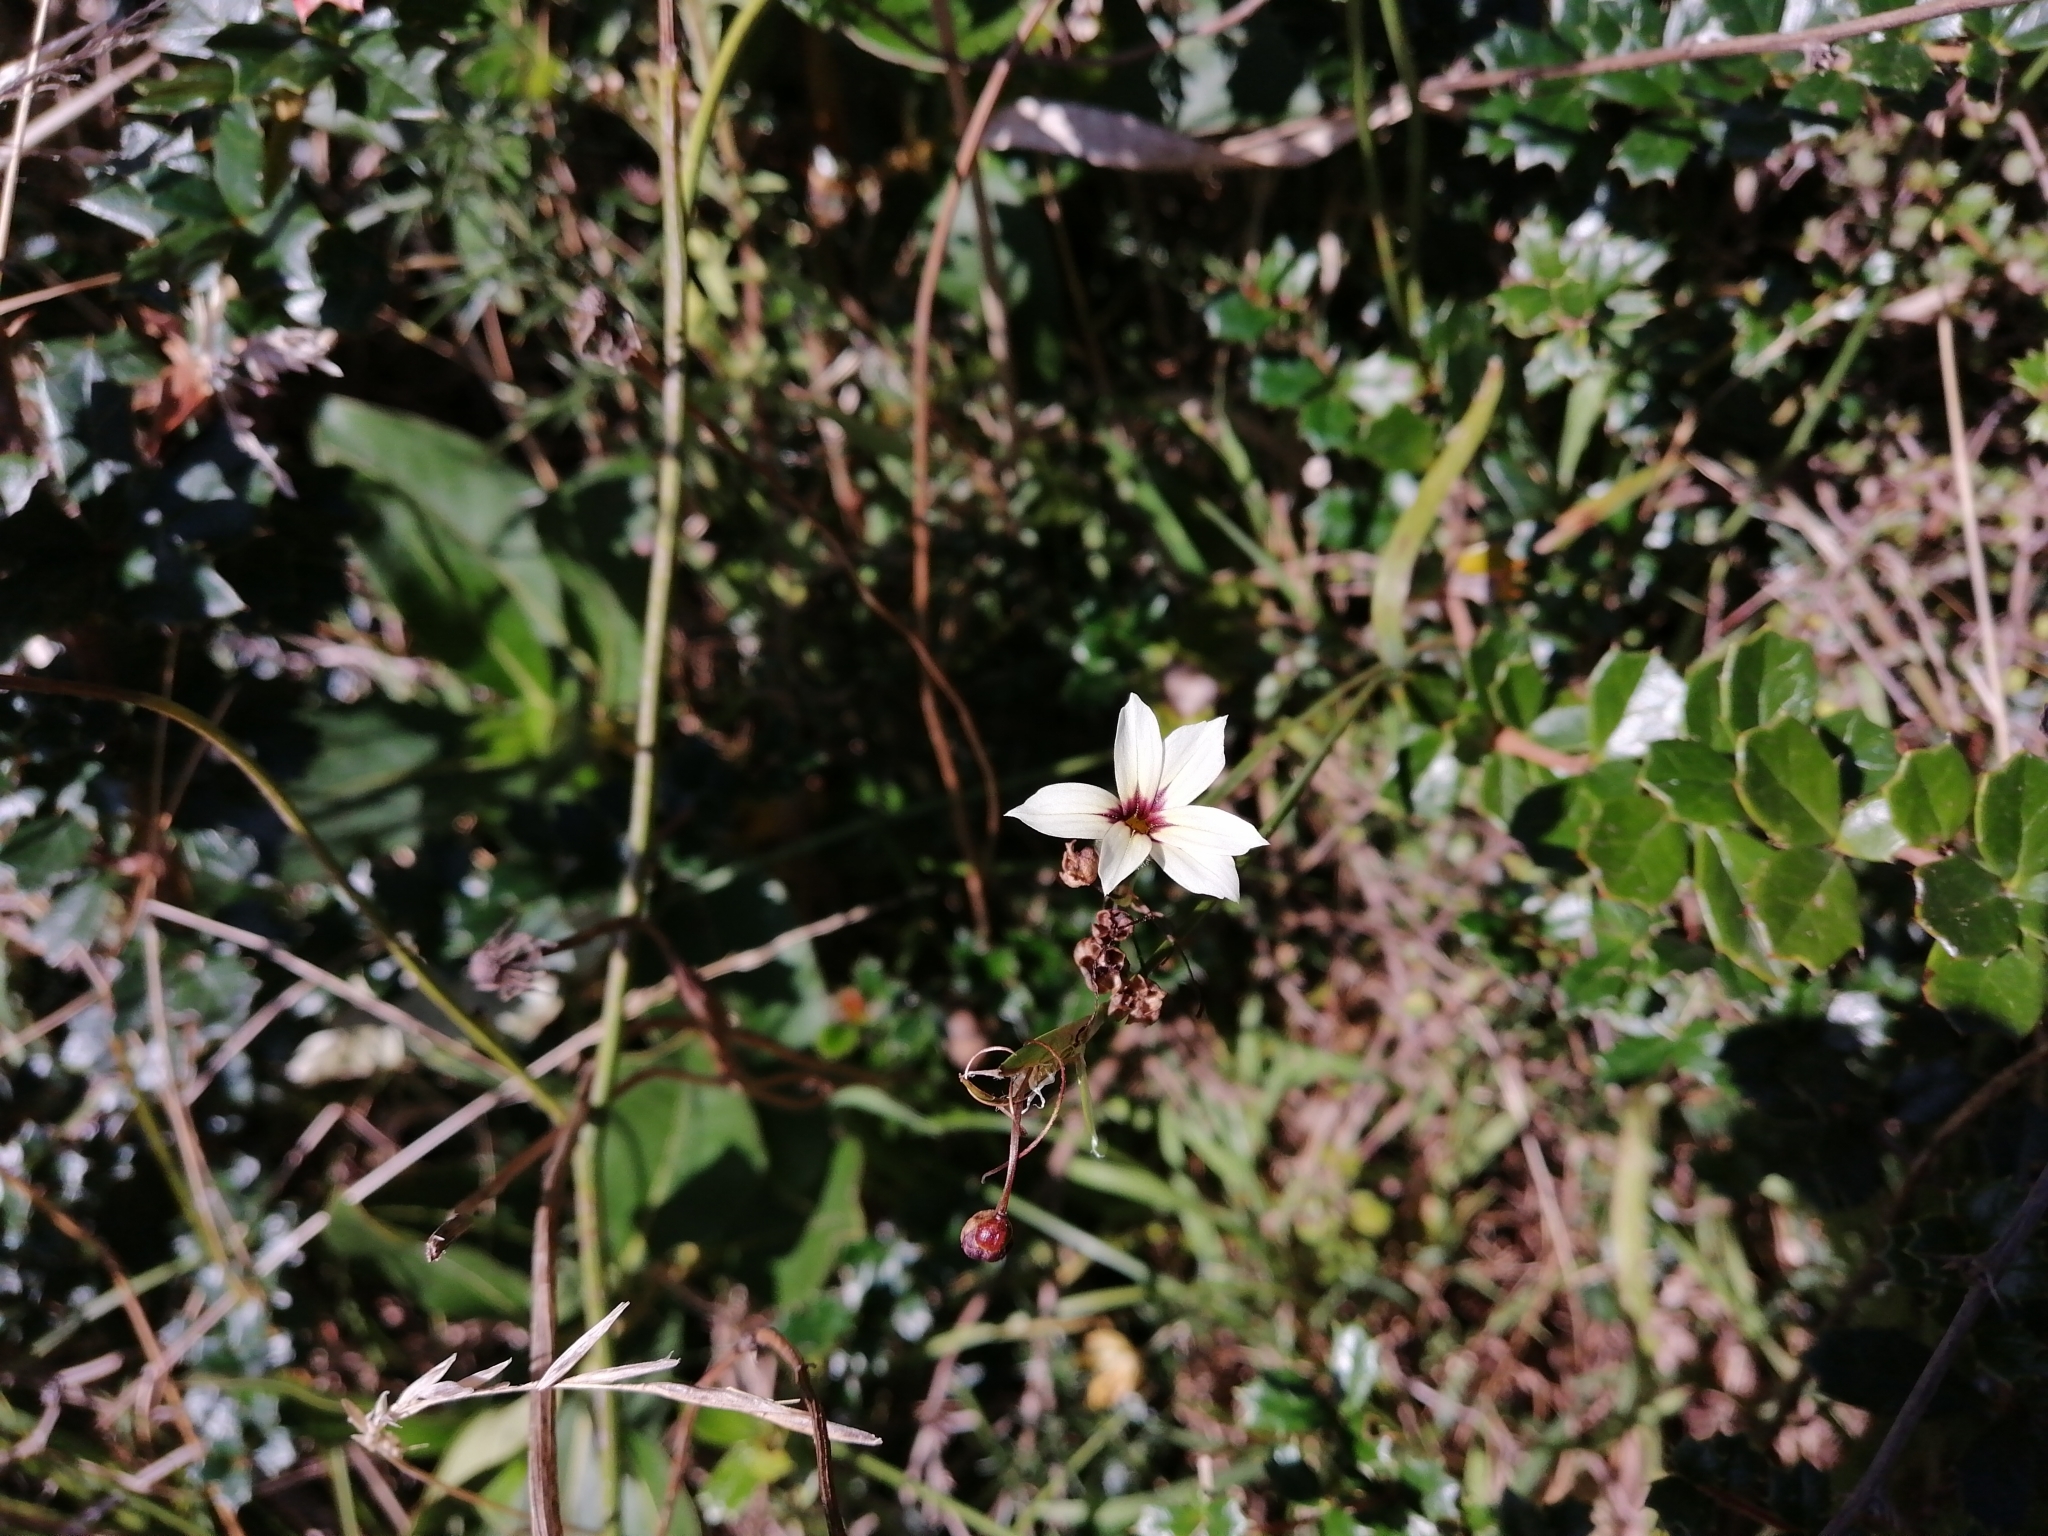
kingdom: Plantae
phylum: Tracheophyta
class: Liliopsida
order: Asparagales
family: Iridaceae
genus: Sisyrinchium
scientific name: Sisyrinchium micranthum
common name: Bermuda pigroot
